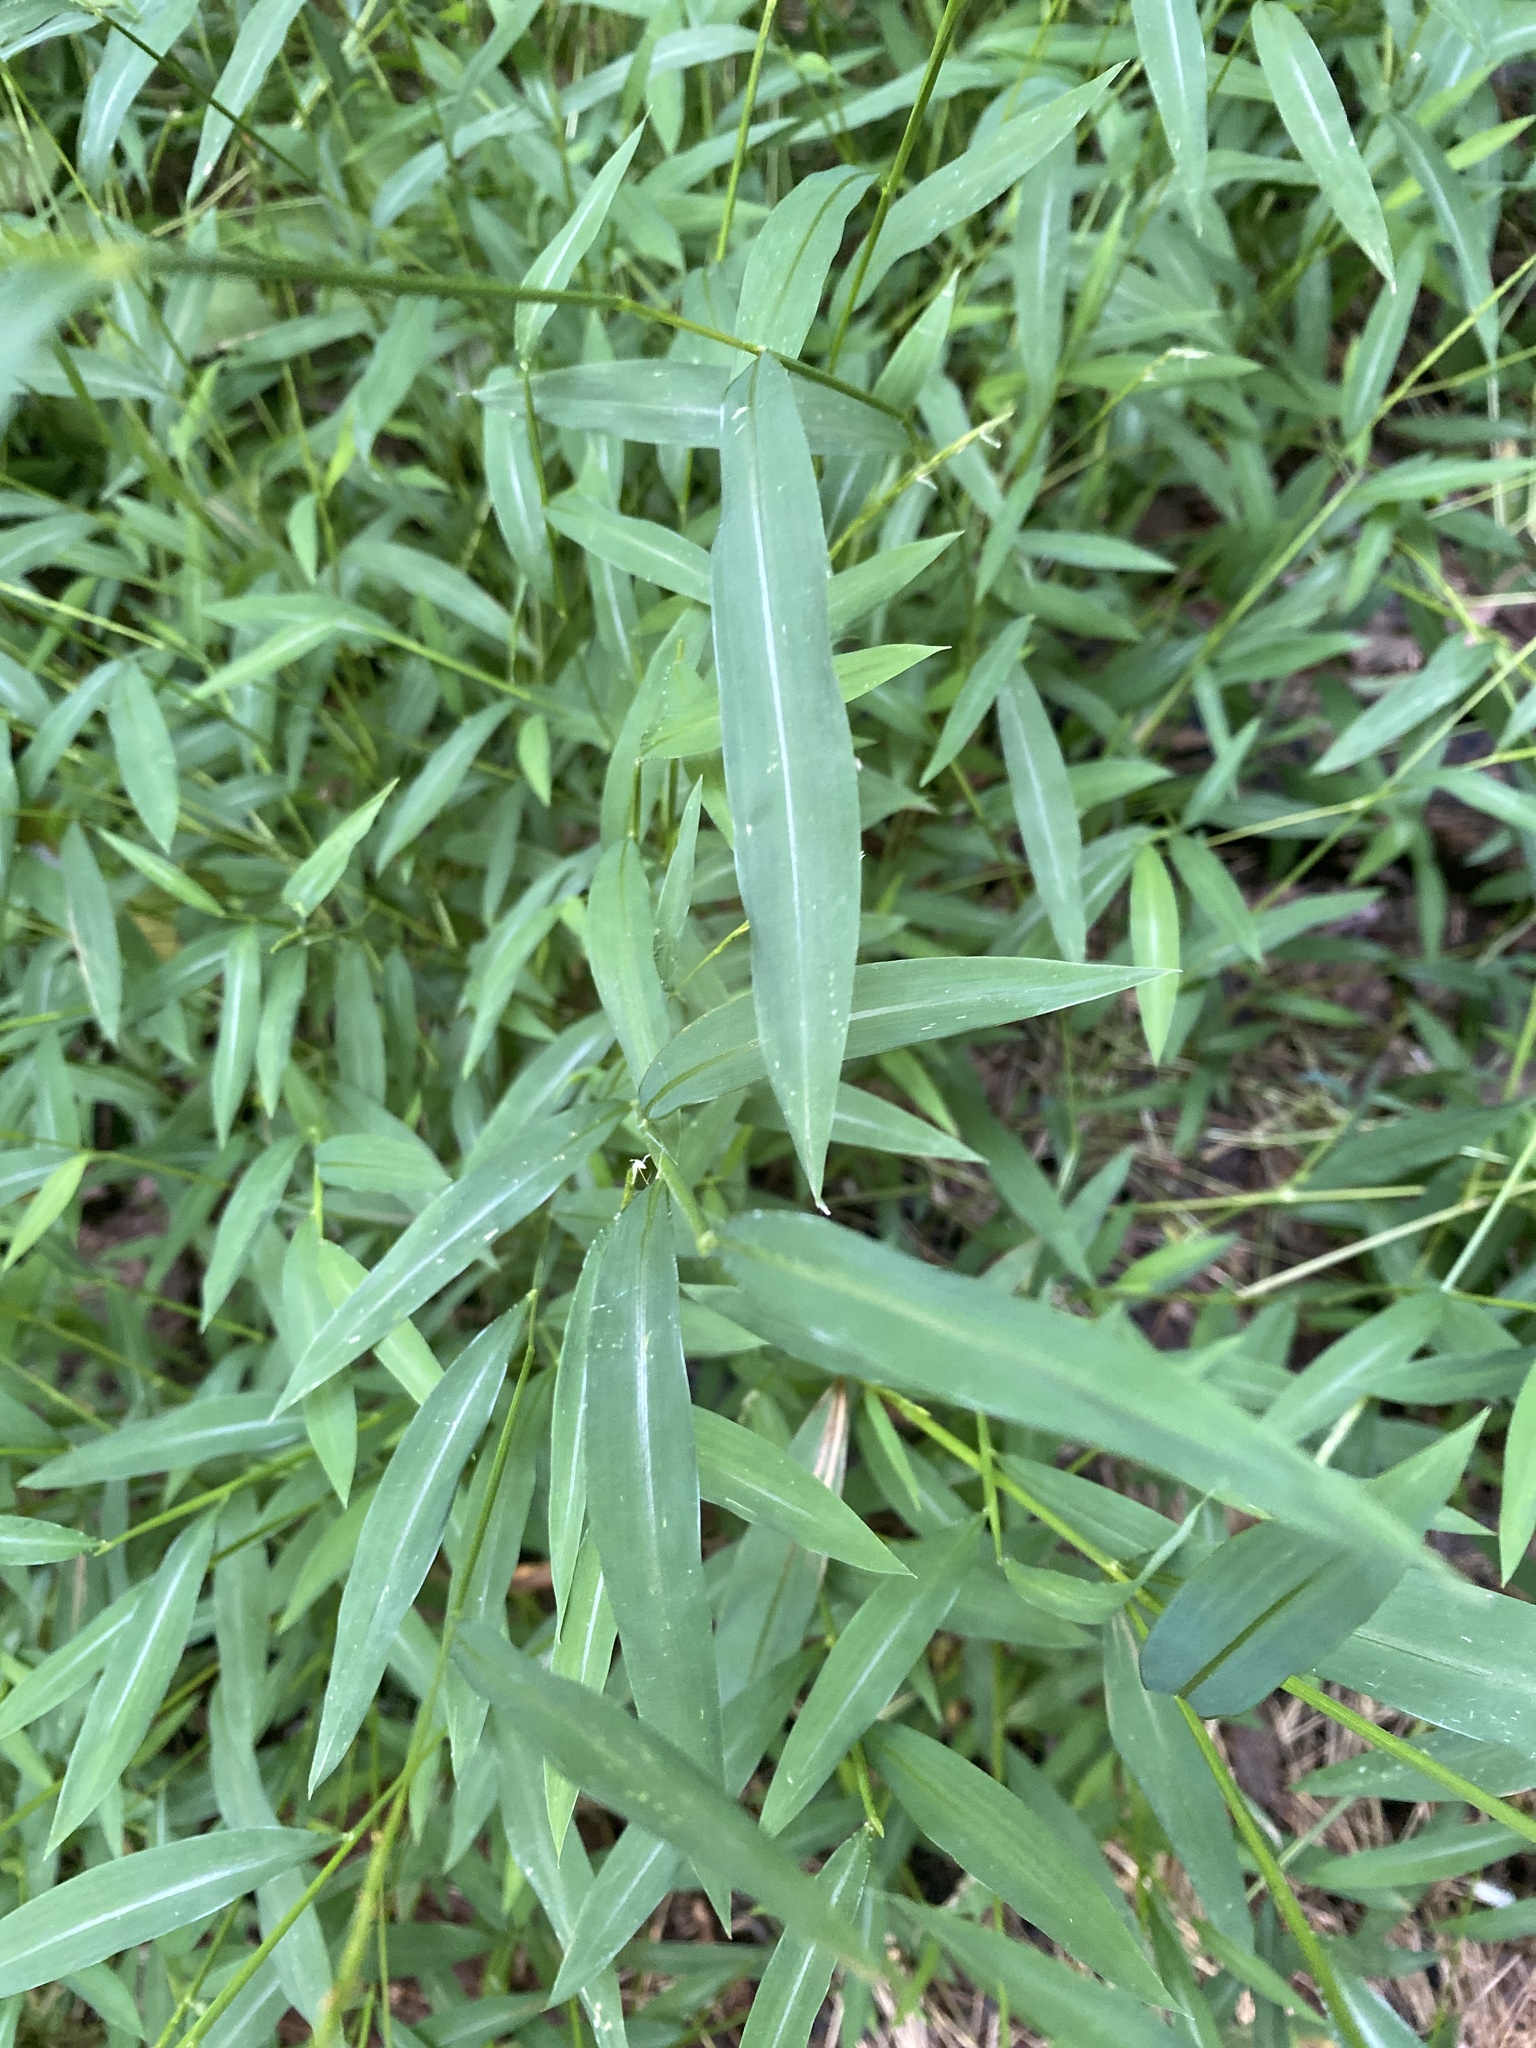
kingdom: Plantae
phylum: Tracheophyta
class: Liliopsida
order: Poales
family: Poaceae
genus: Microstegium
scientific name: Microstegium vimineum
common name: Japanese stiltgrass
